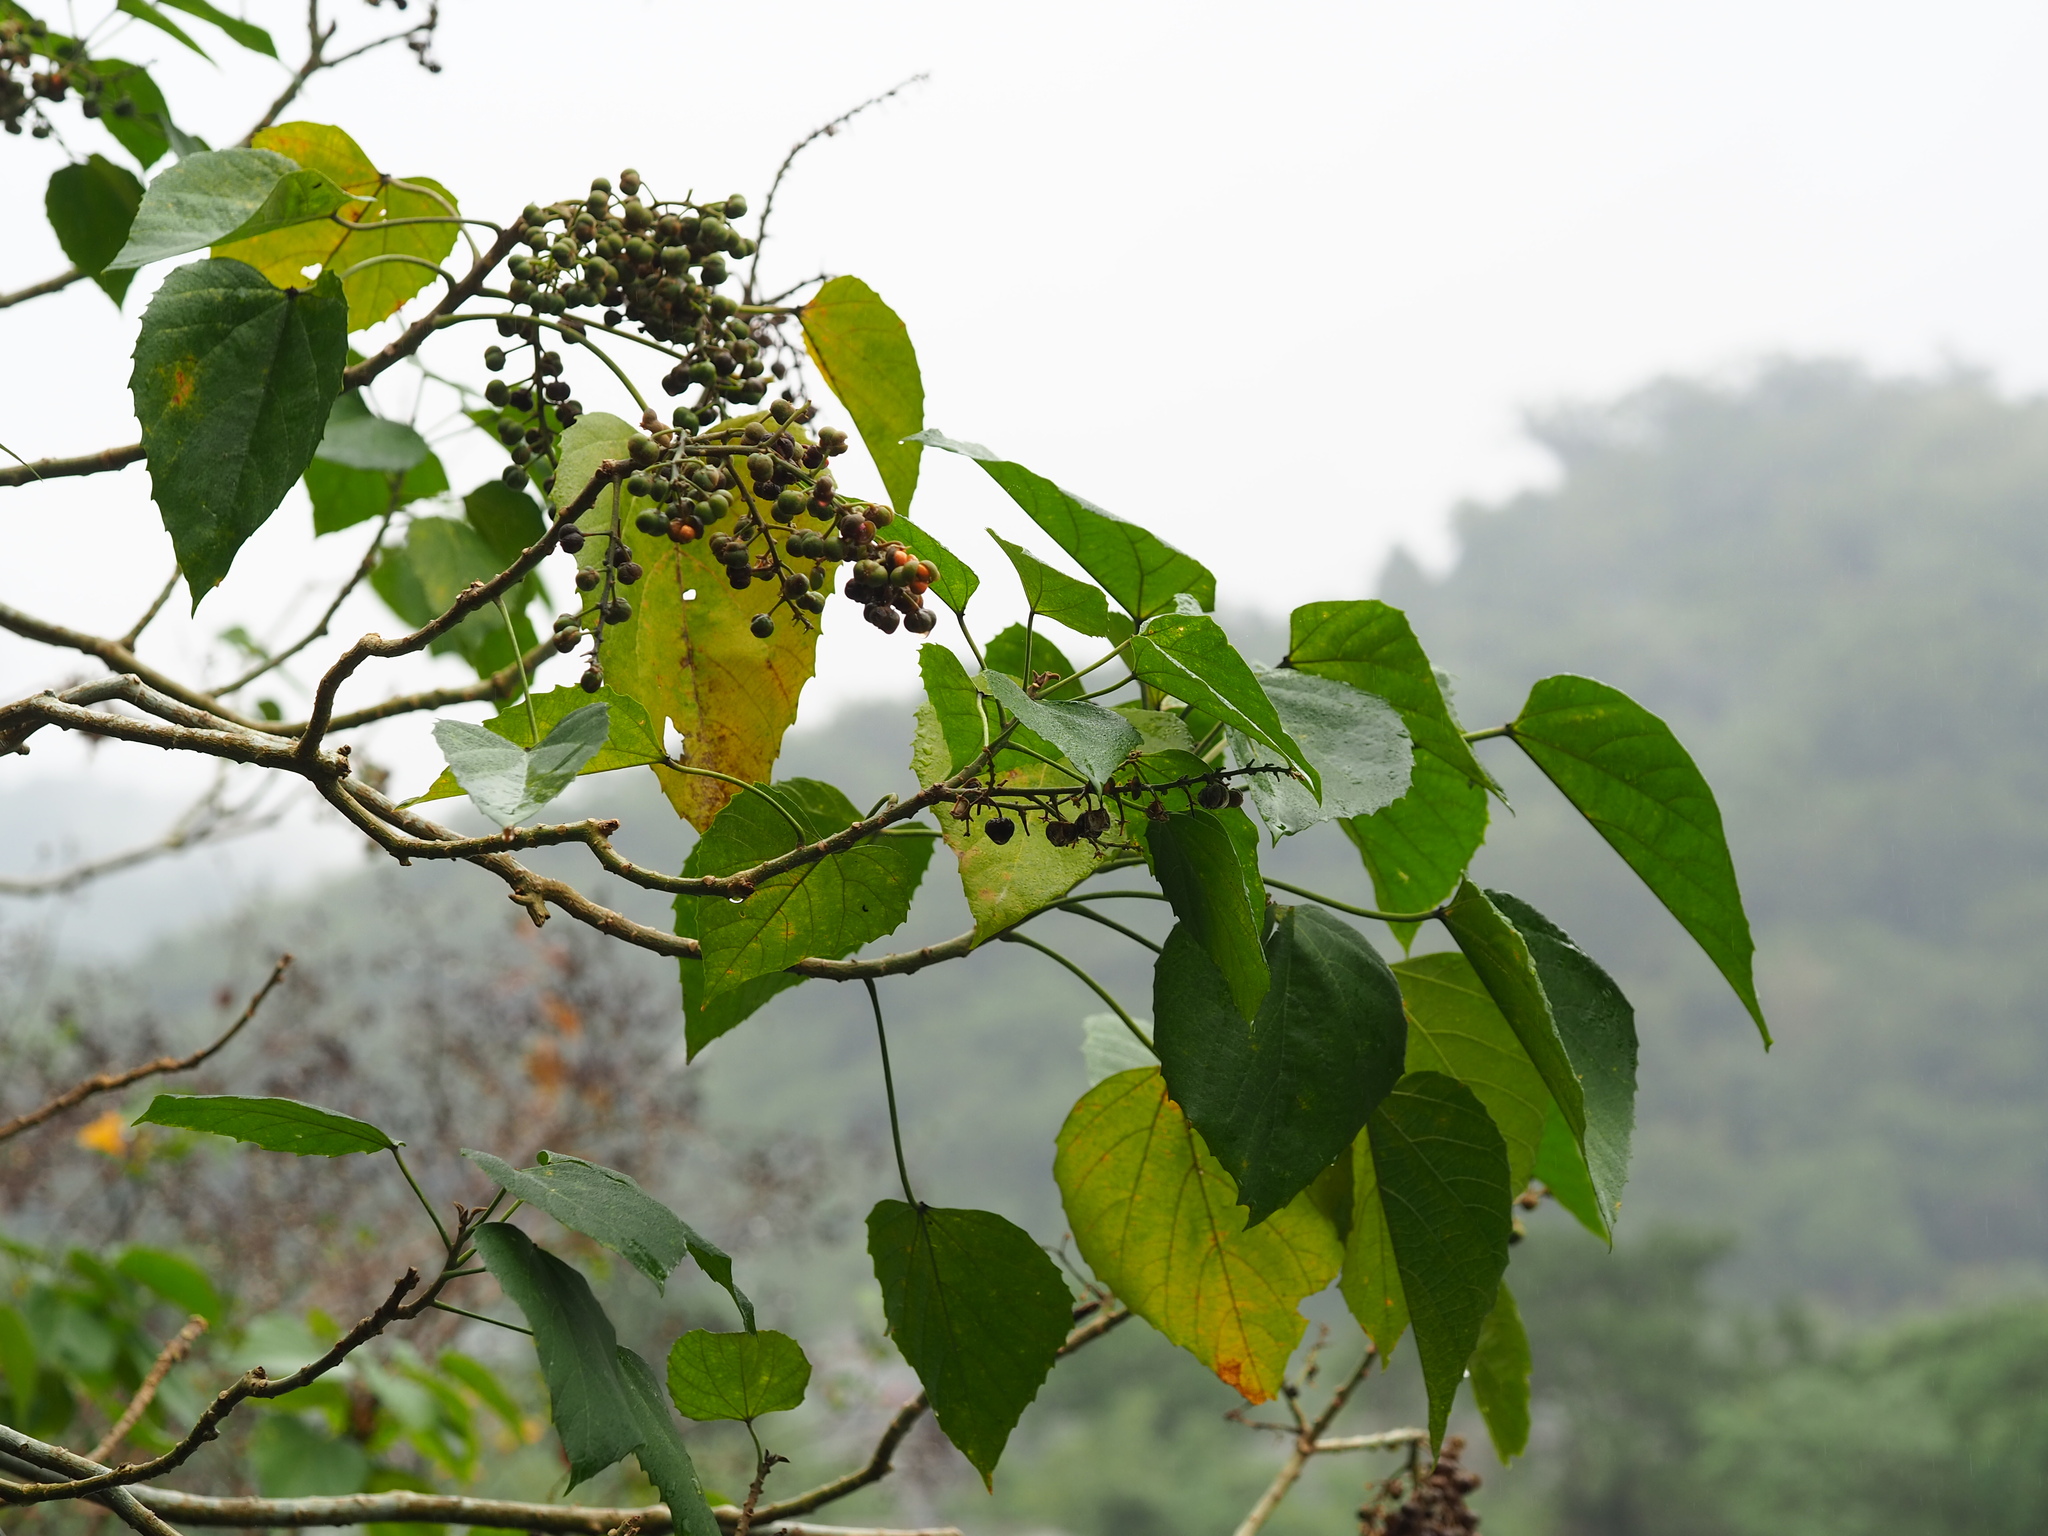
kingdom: Plantae
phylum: Tracheophyta
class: Magnoliopsida
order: Malpighiales
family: Euphorbiaceae
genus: Melanolepis
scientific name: Melanolepis multiglandulosa
